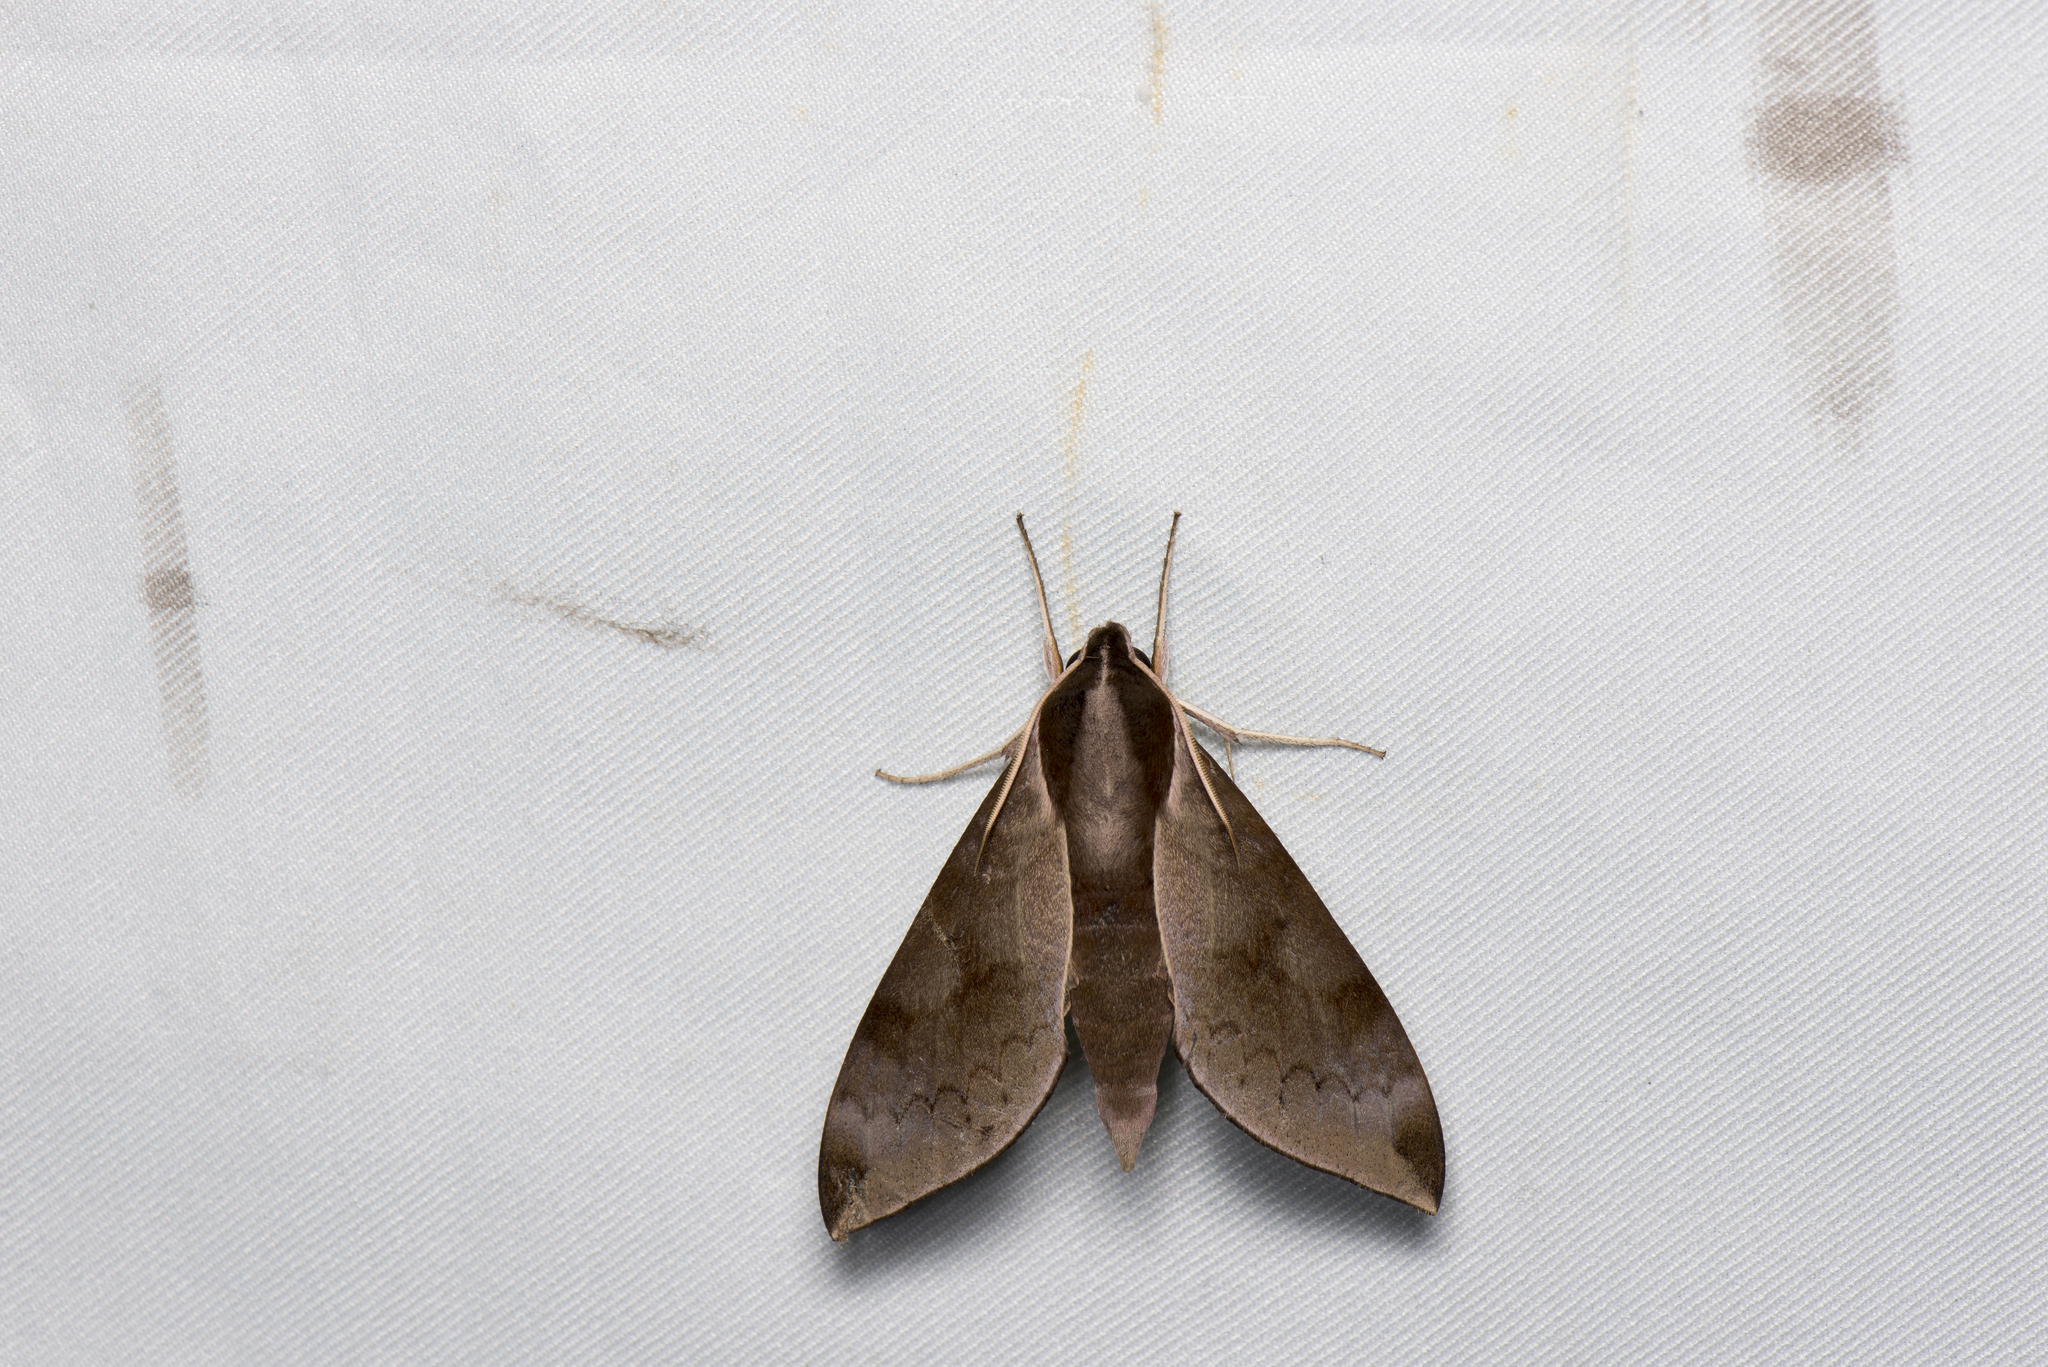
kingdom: Animalia
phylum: Arthropoda
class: Insecta
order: Lepidoptera
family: Sphingidae
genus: Acosmerycoides
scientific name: Acosmerycoides harterti
